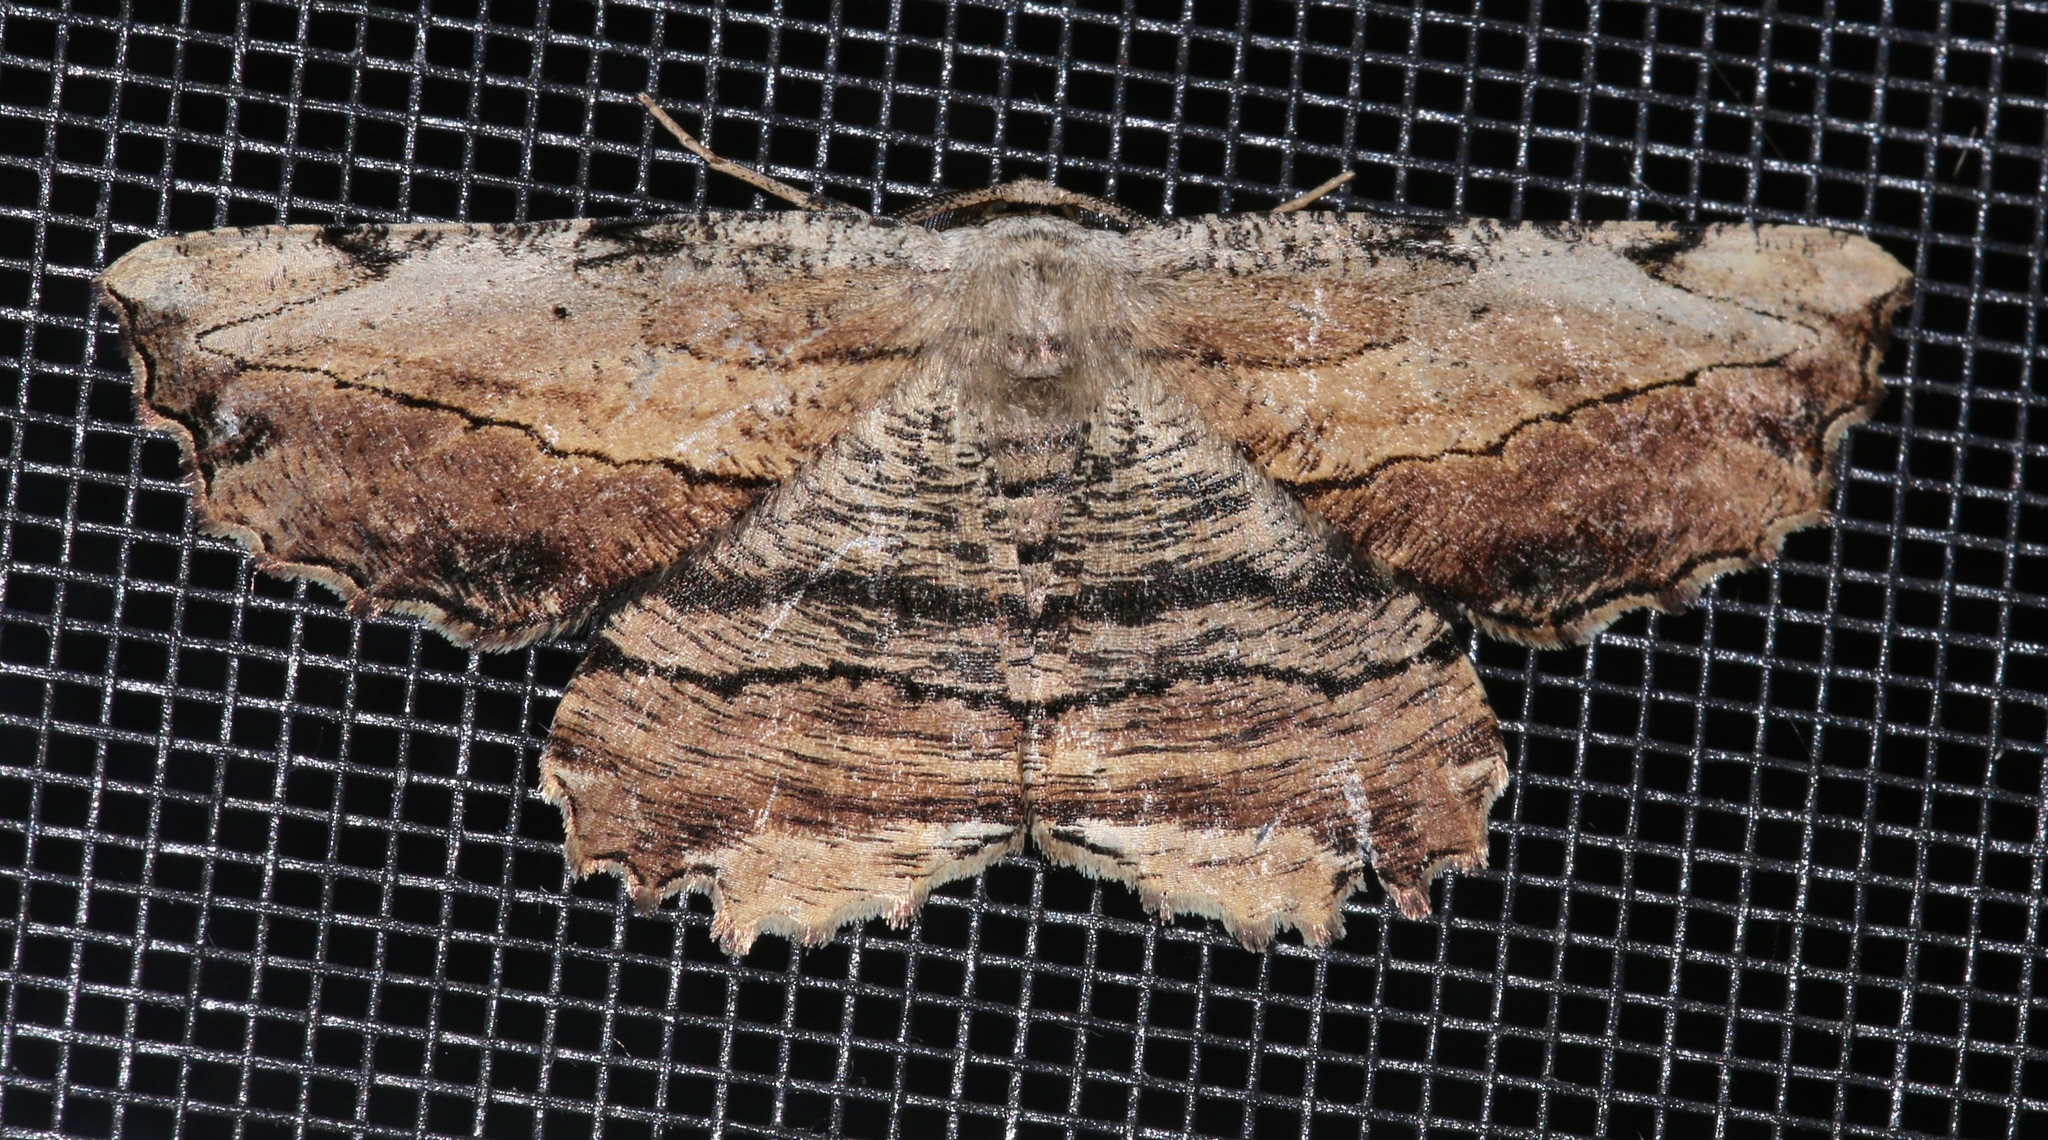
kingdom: Animalia
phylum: Arthropoda
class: Insecta
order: Lepidoptera
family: Geometridae
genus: Lytrosis
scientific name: Lytrosis unitaria
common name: Common lytrosis
